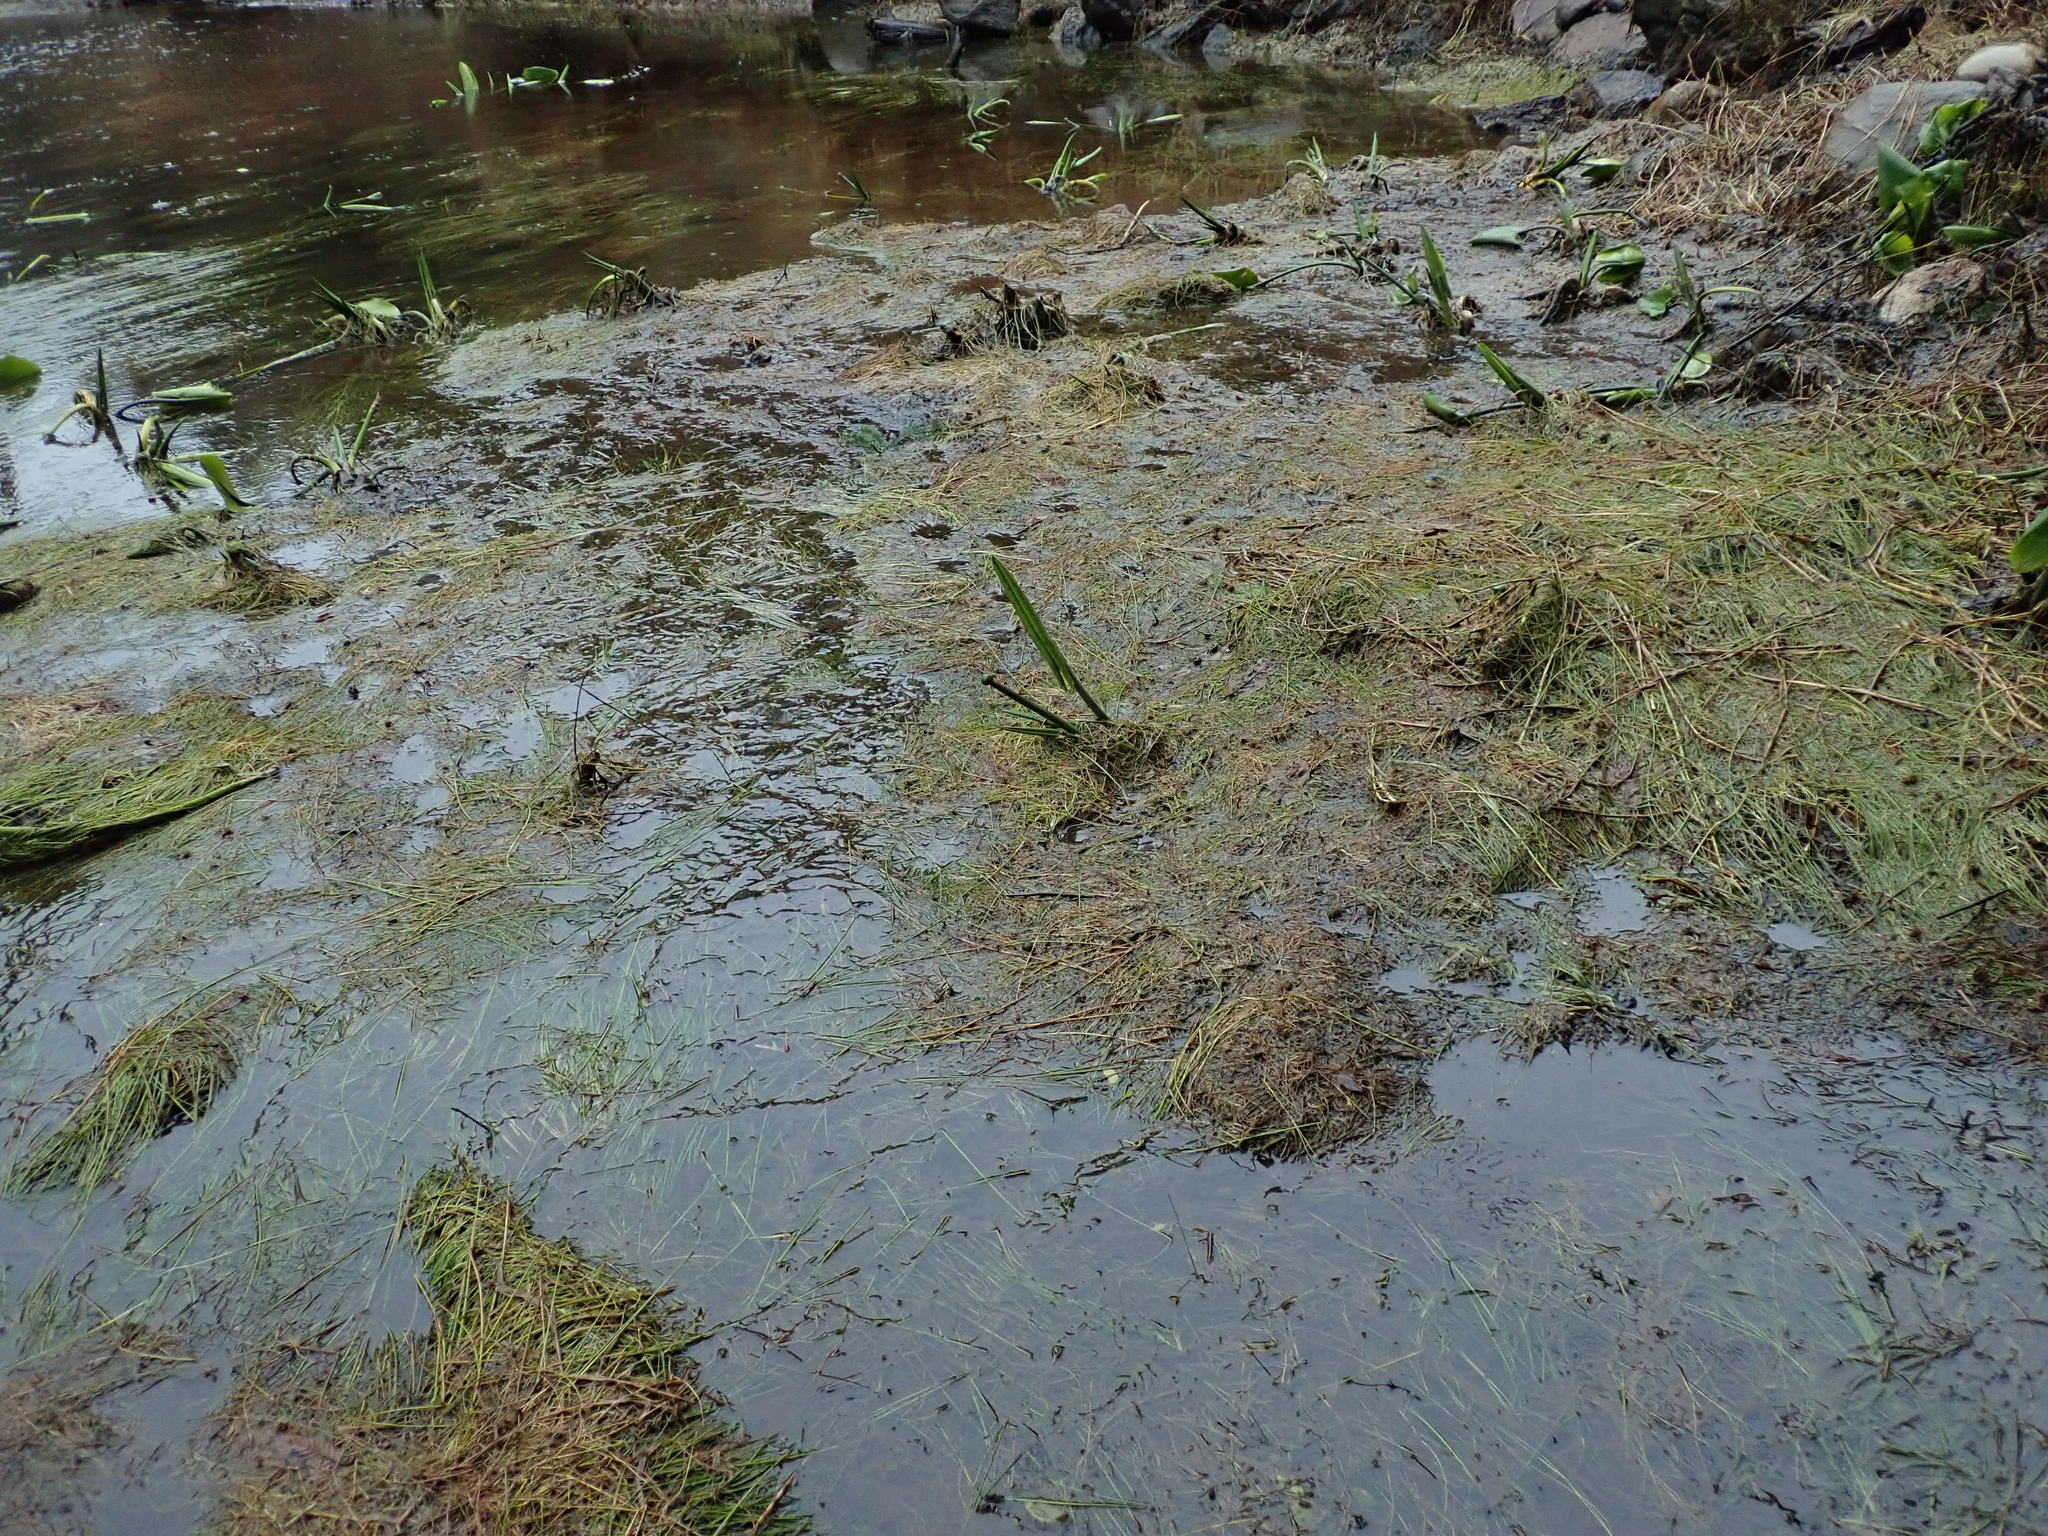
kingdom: Plantae
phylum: Tracheophyta
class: Magnoliopsida
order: Nymphaeales
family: Nymphaeaceae
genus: Nuphar
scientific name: Nuphar polysepala
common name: Rocky mountain cow-lily
